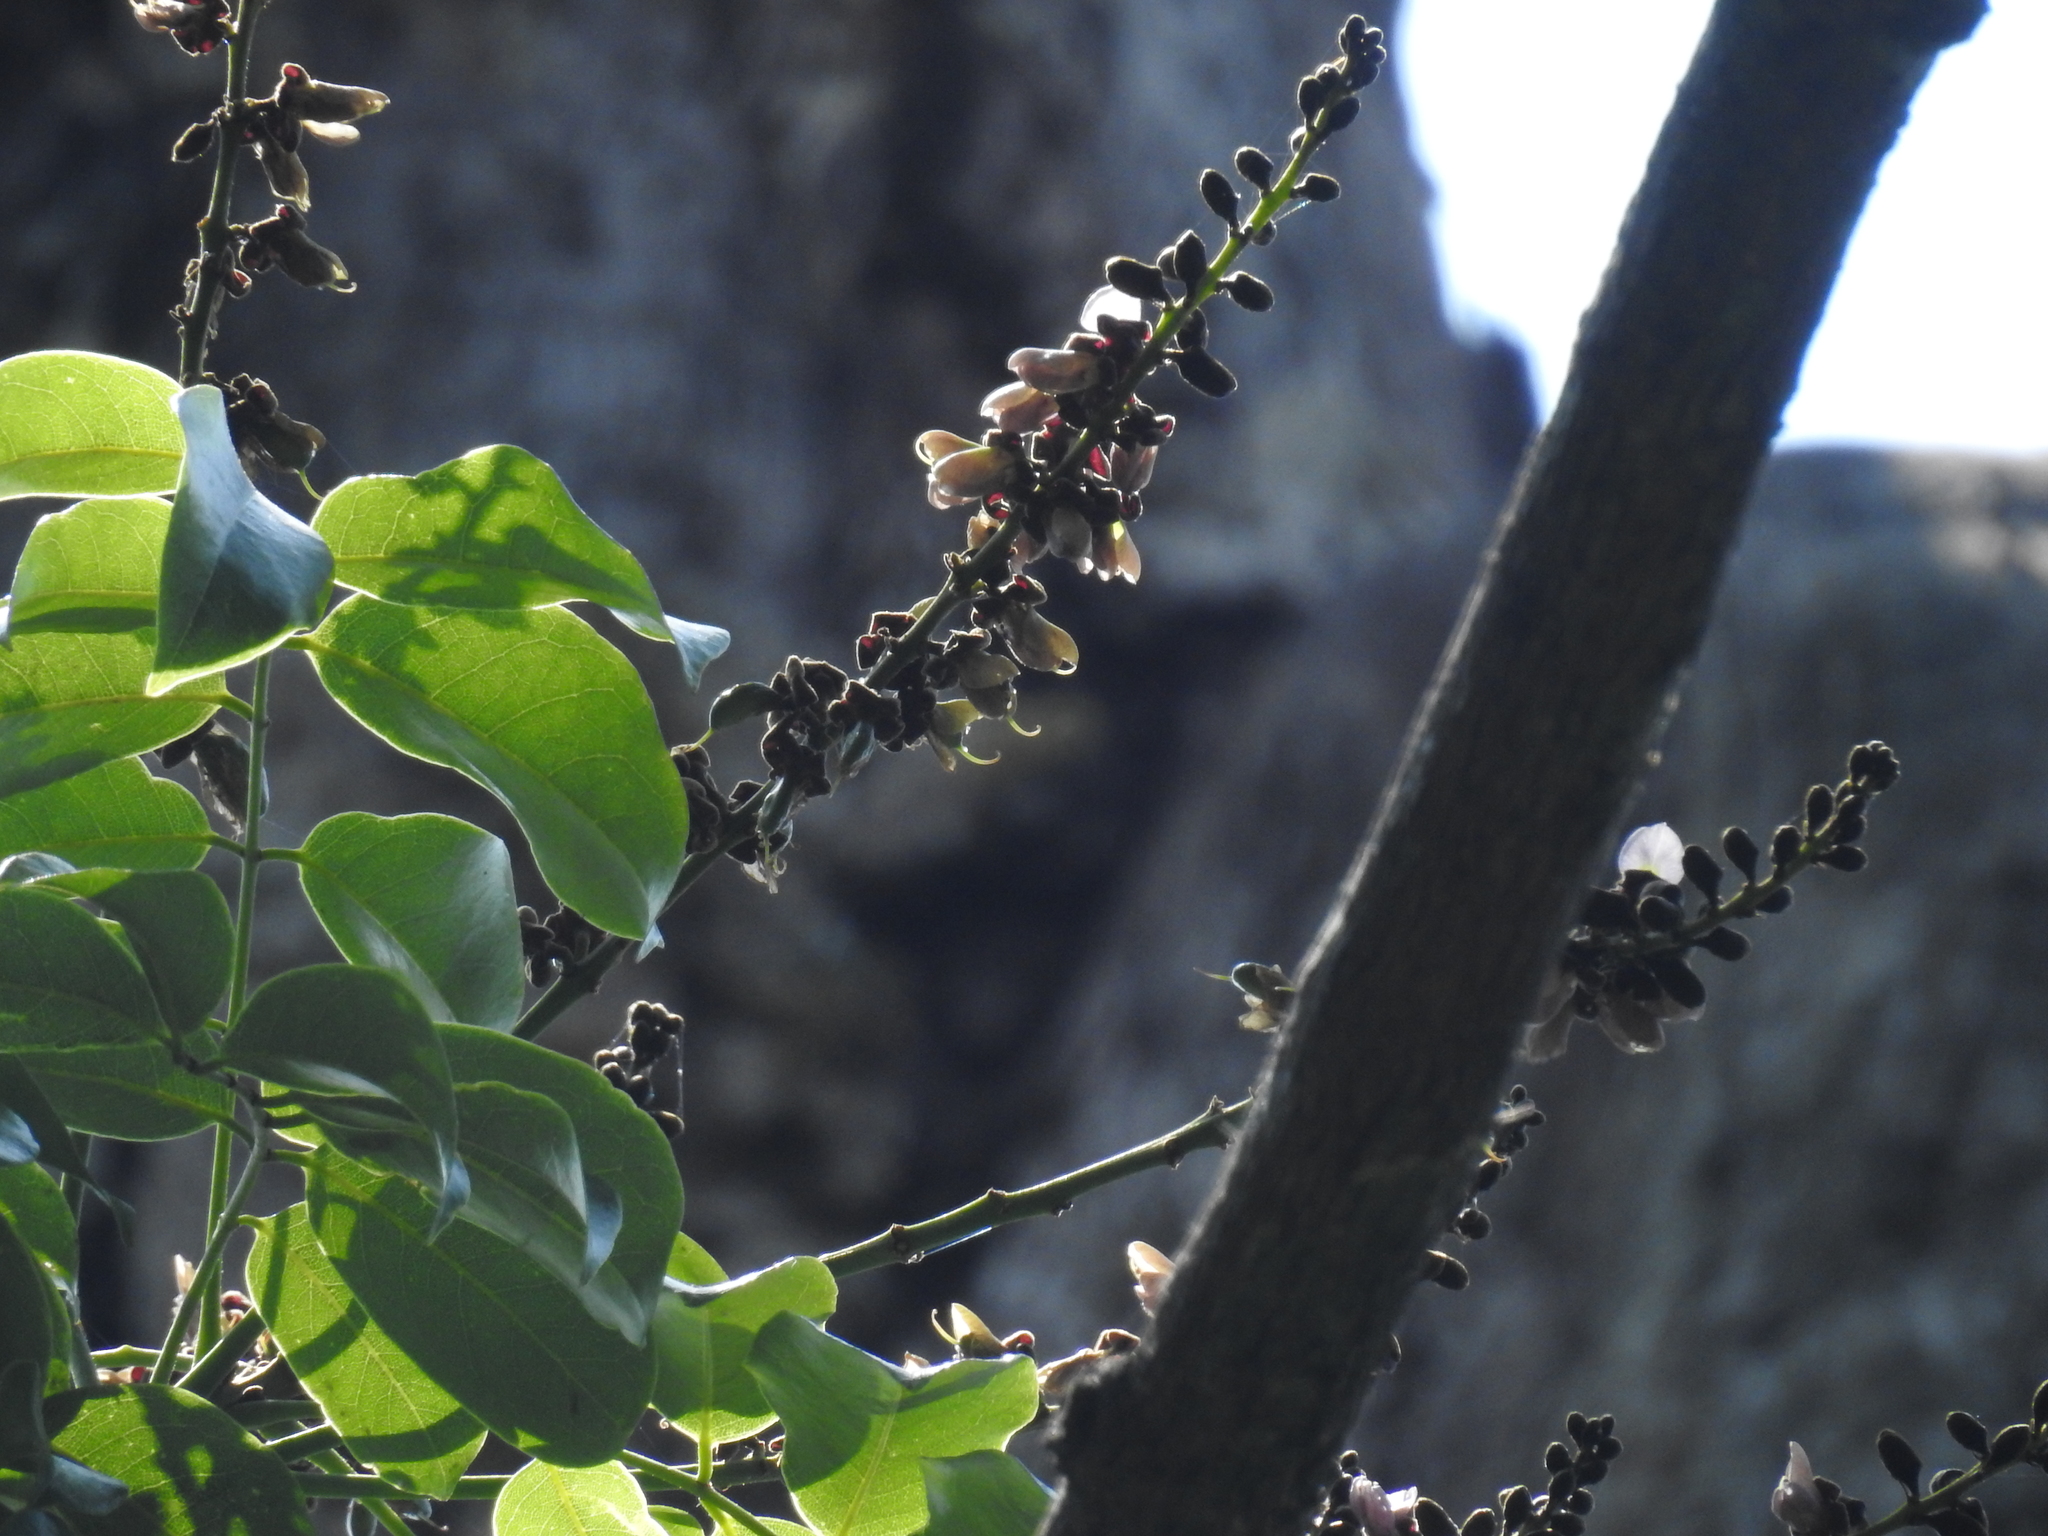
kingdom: Plantae
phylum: Tracheophyta
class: Magnoliopsida
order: Fabales
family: Fabaceae
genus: Ormosia
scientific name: Ormosia travancorica
